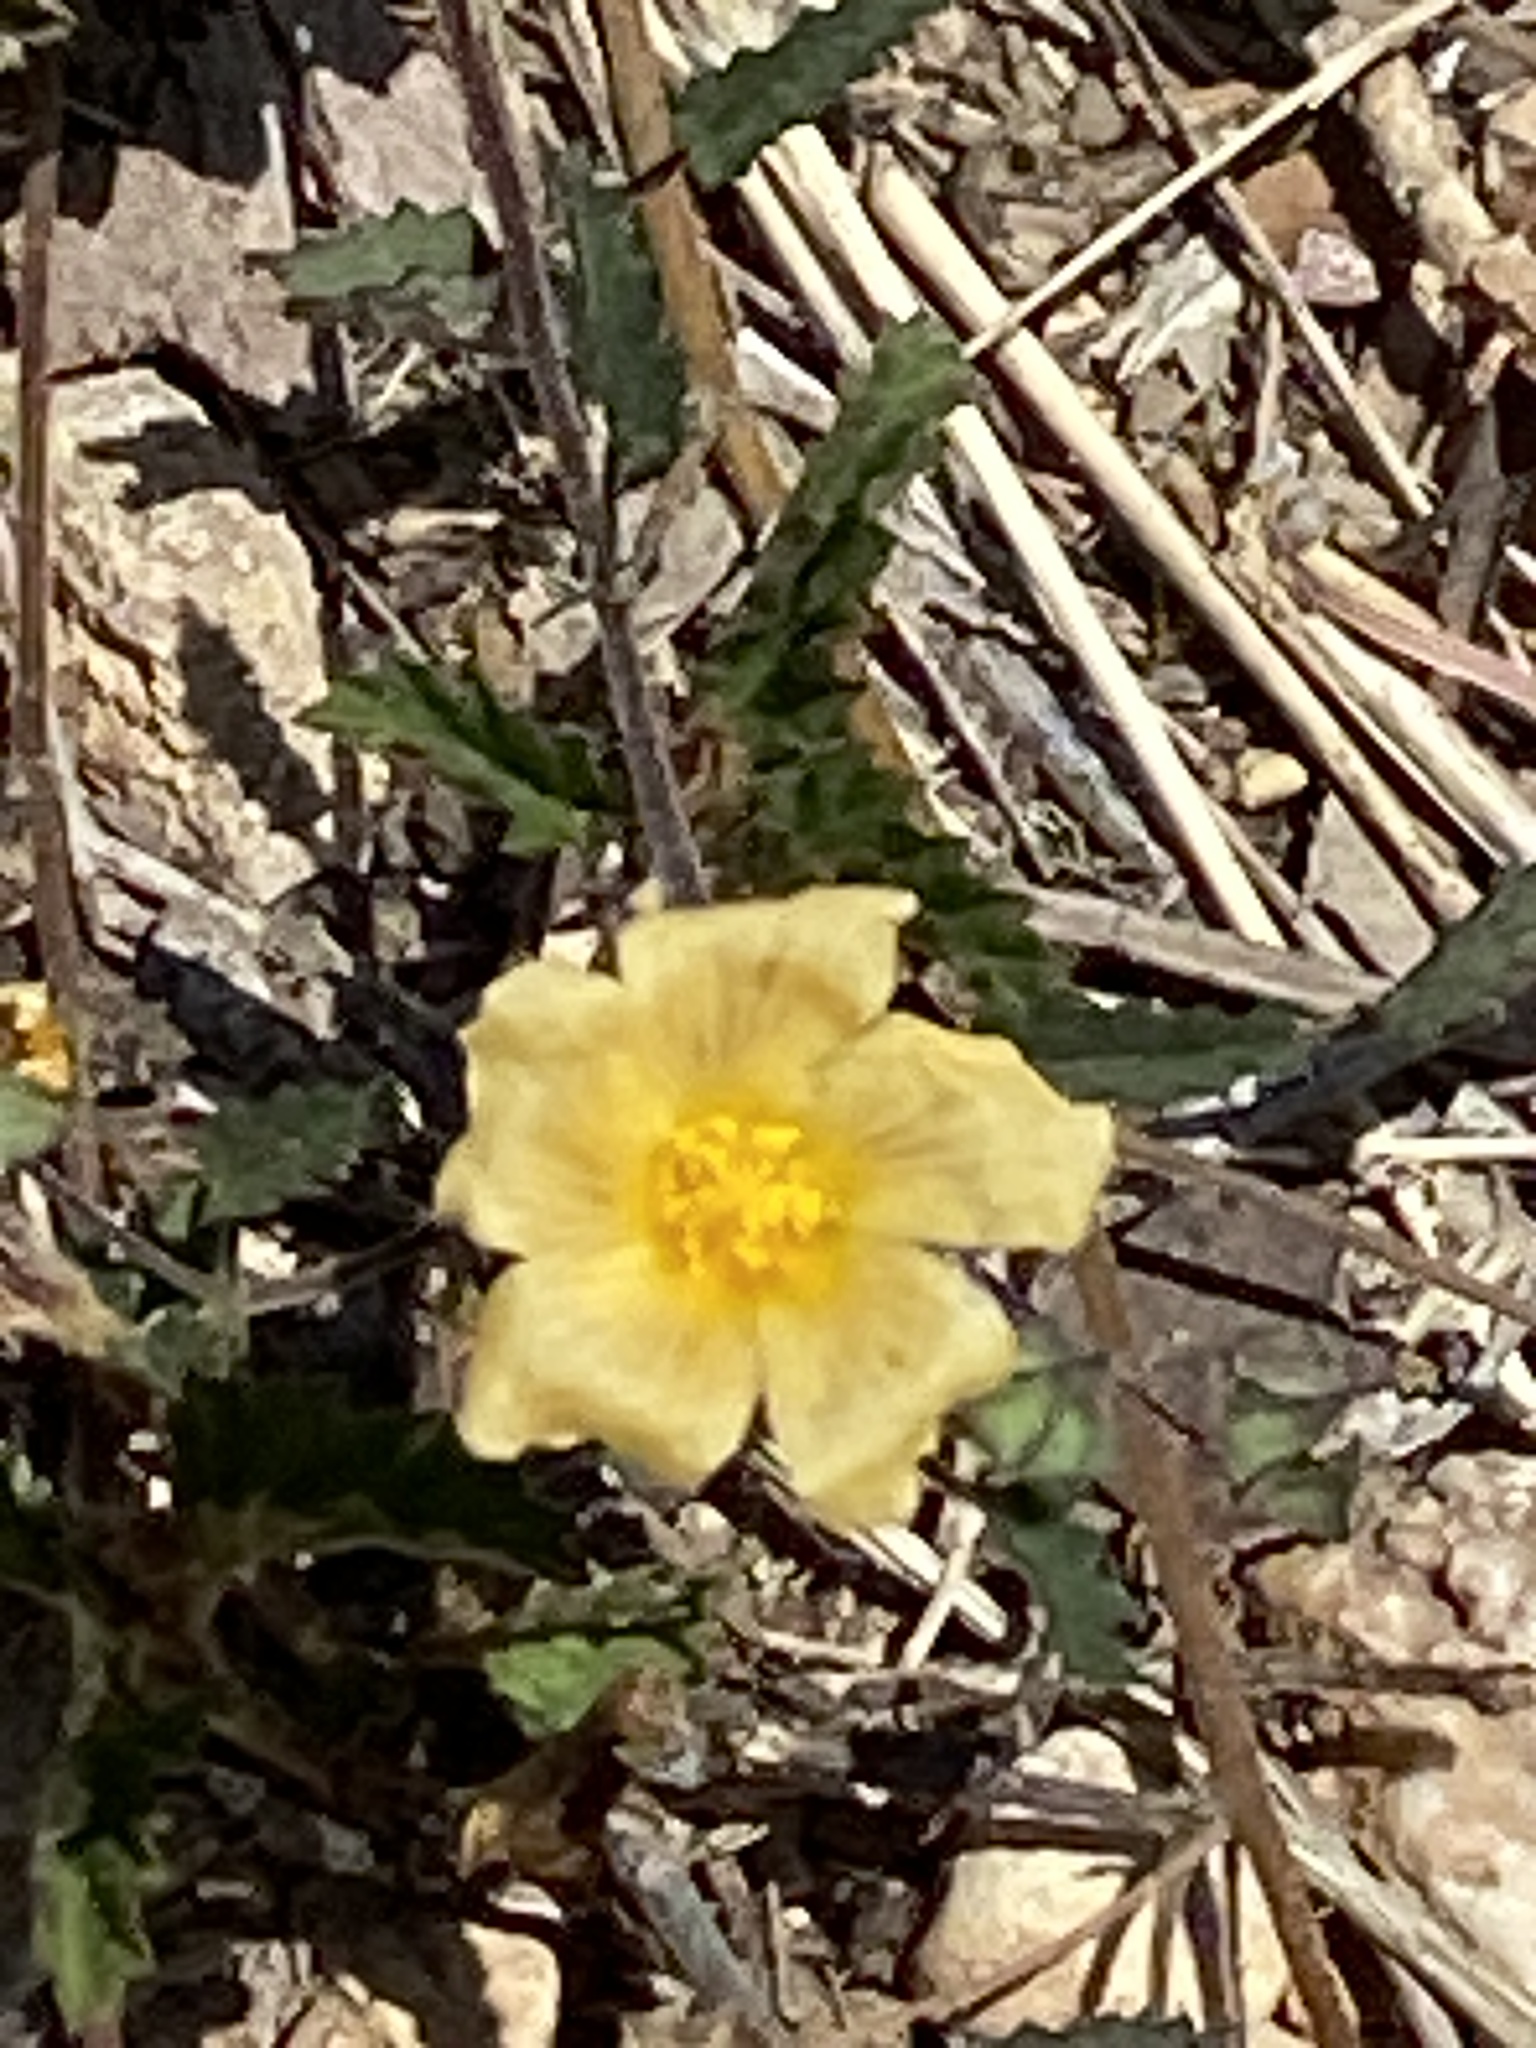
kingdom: Plantae
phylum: Tracheophyta
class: Magnoliopsida
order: Malvales
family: Malvaceae
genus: Sida
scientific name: Sida abutilifolia
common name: Spreading fanpetals
